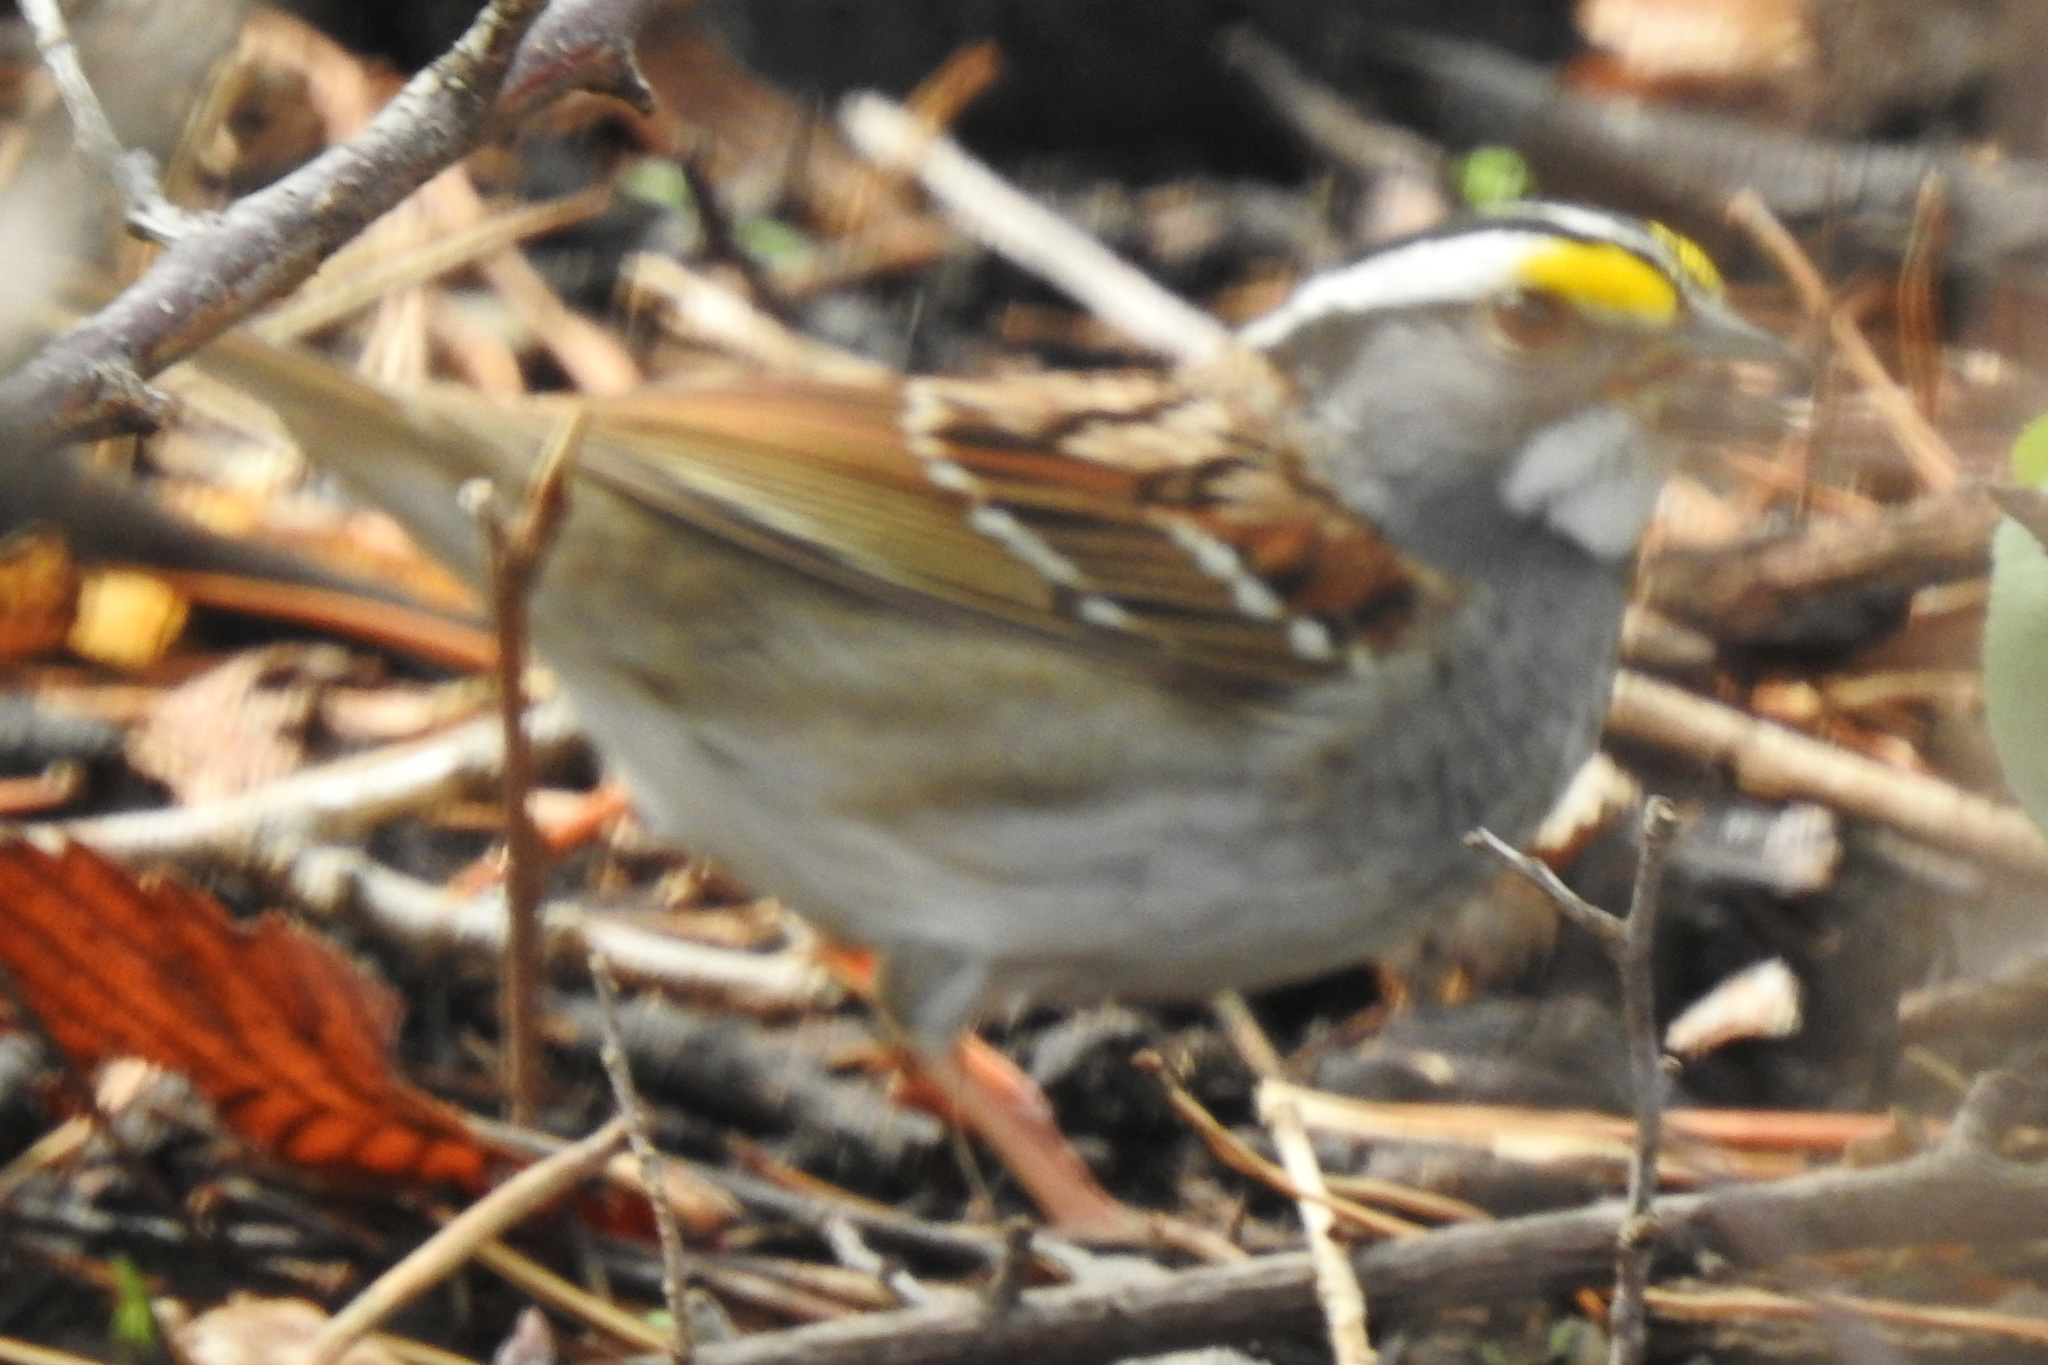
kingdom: Animalia
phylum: Chordata
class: Aves
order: Passeriformes
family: Passerellidae
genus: Zonotrichia
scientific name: Zonotrichia albicollis
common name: White-throated sparrow
